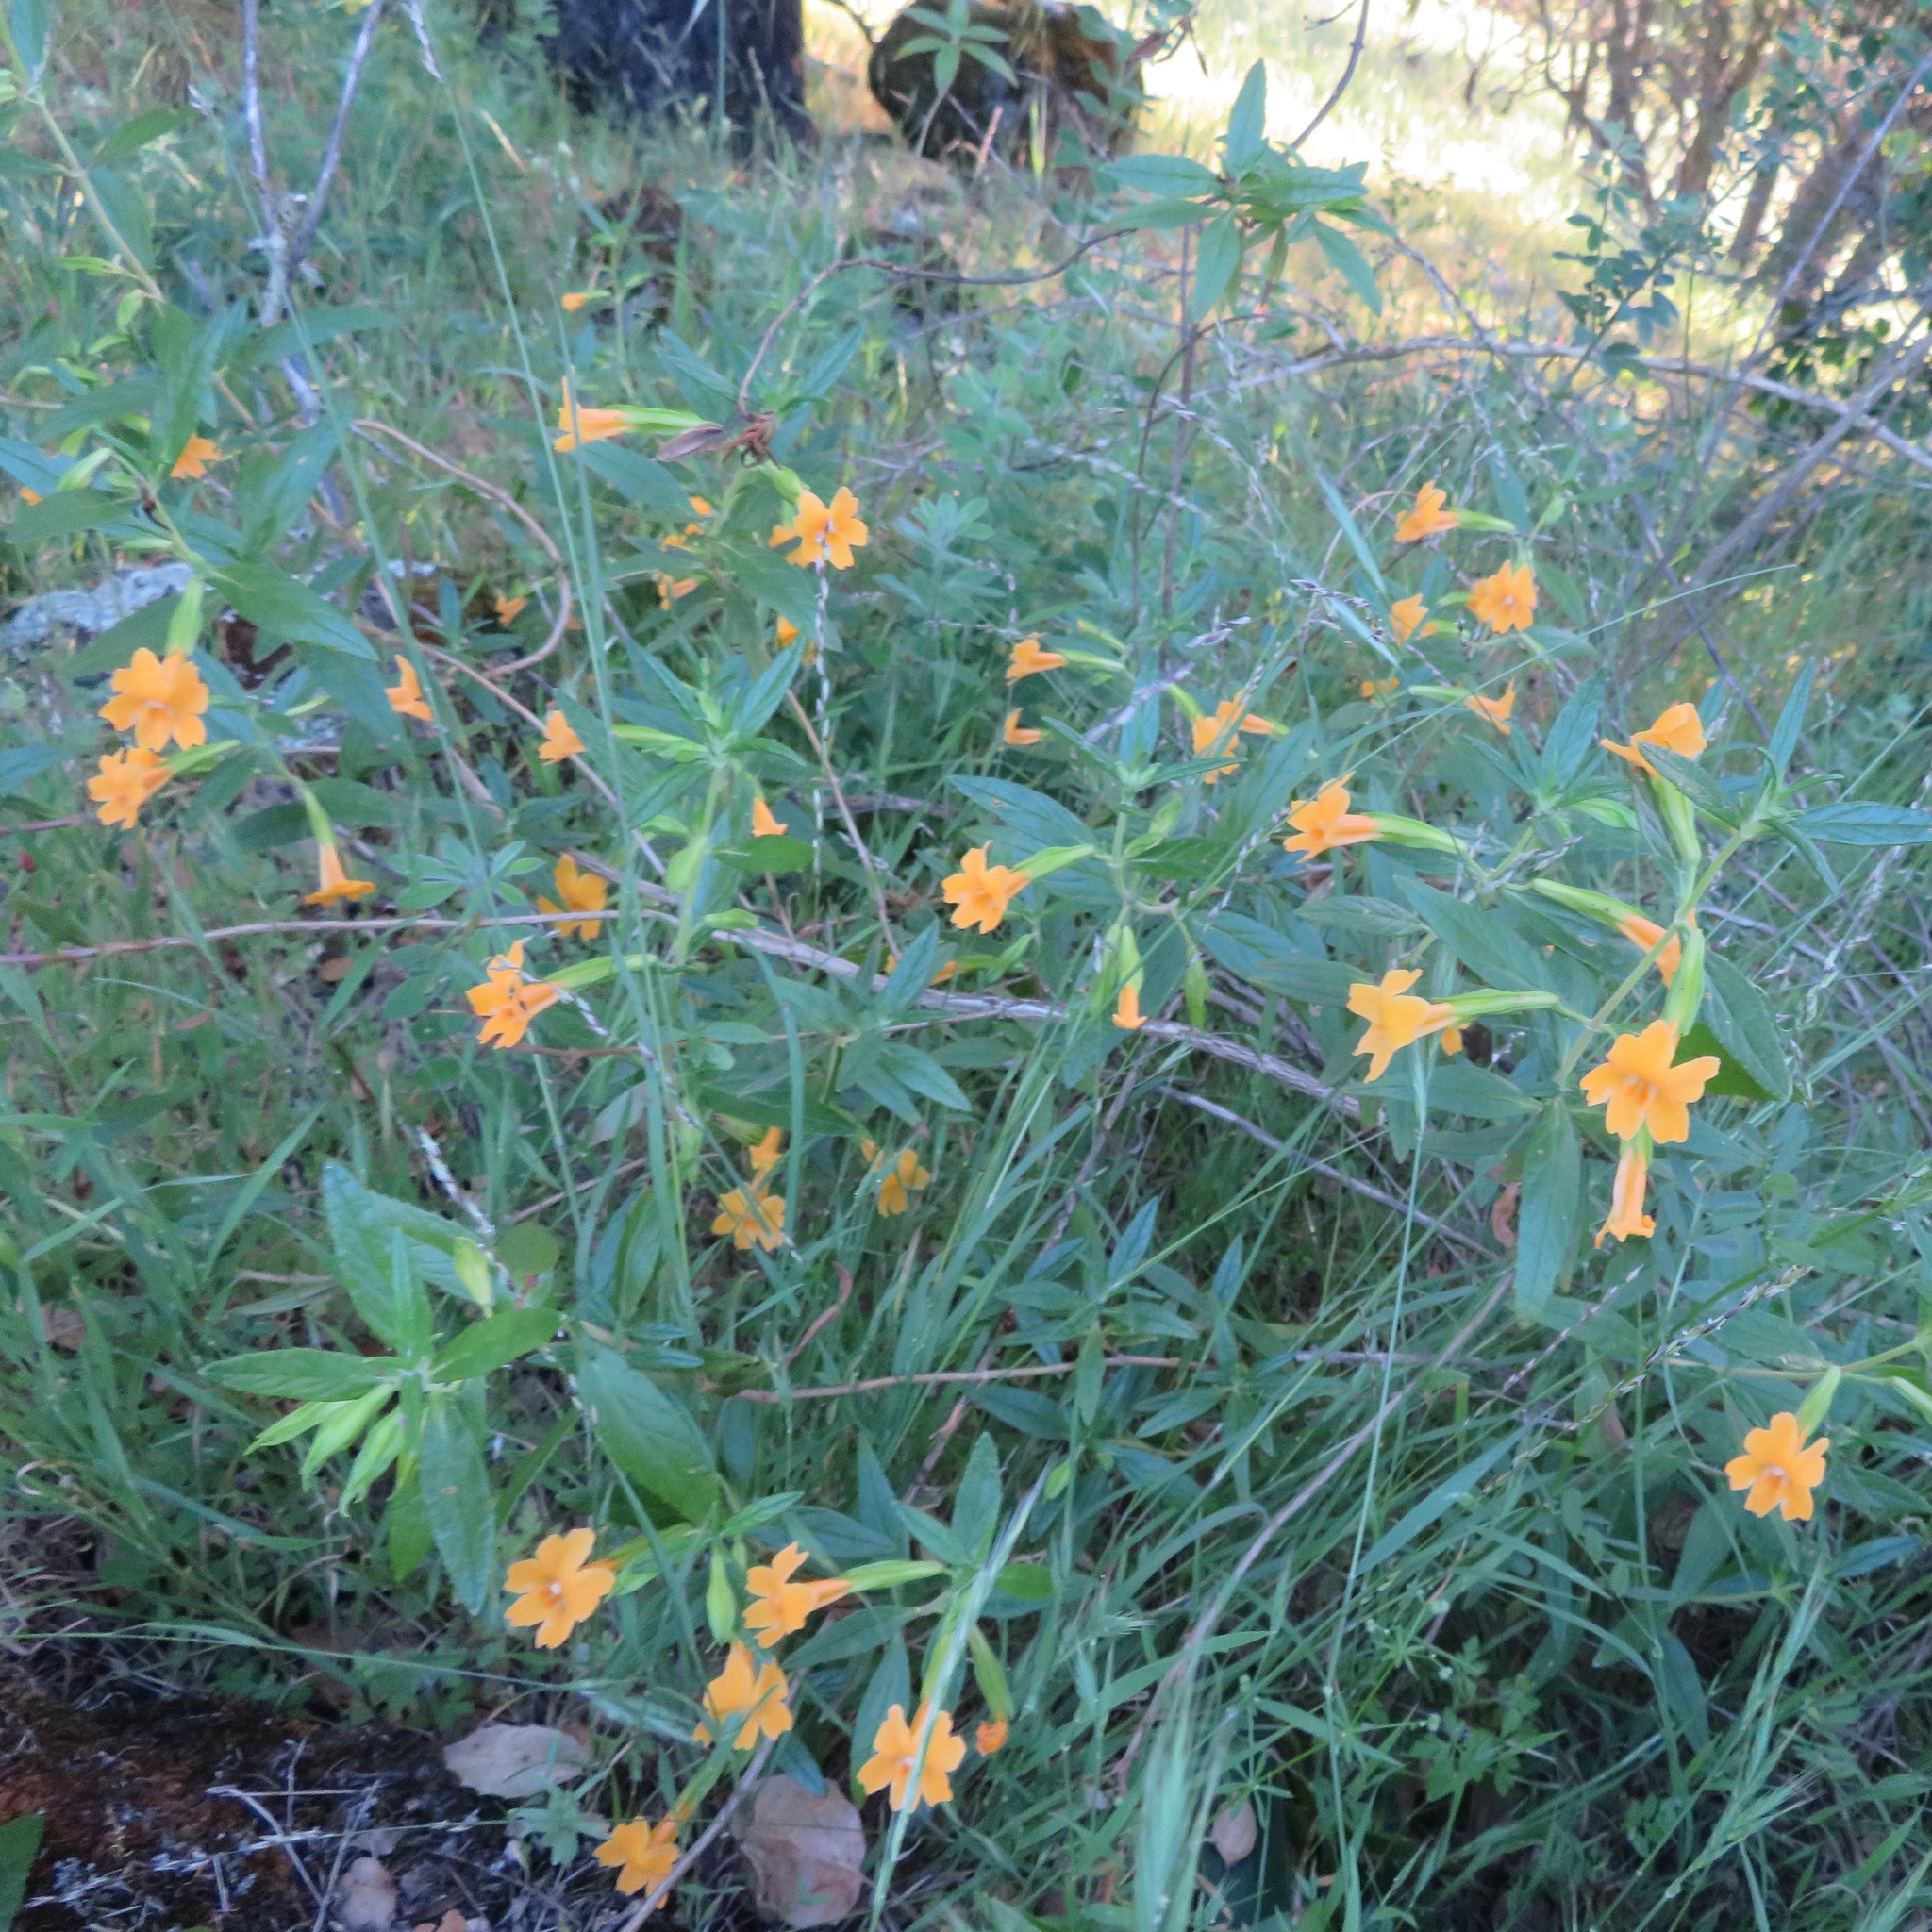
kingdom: Plantae
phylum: Tracheophyta
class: Magnoliopsida
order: Lamiales
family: Phrymaceae
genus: Diplacus
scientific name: Diplacus aurantiacus
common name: Bush monkey-flower
